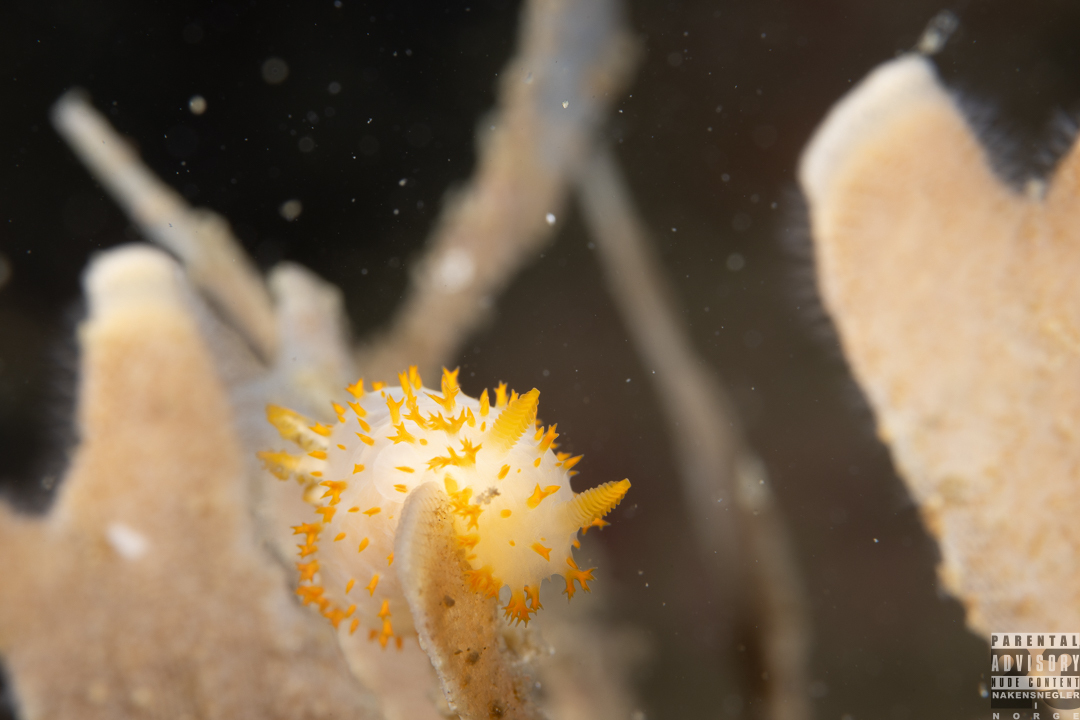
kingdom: Animalia
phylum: Mollusca
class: Gastropoda
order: Nudibranchia
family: Polyceridae
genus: Crimora
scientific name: Crimora papillata
